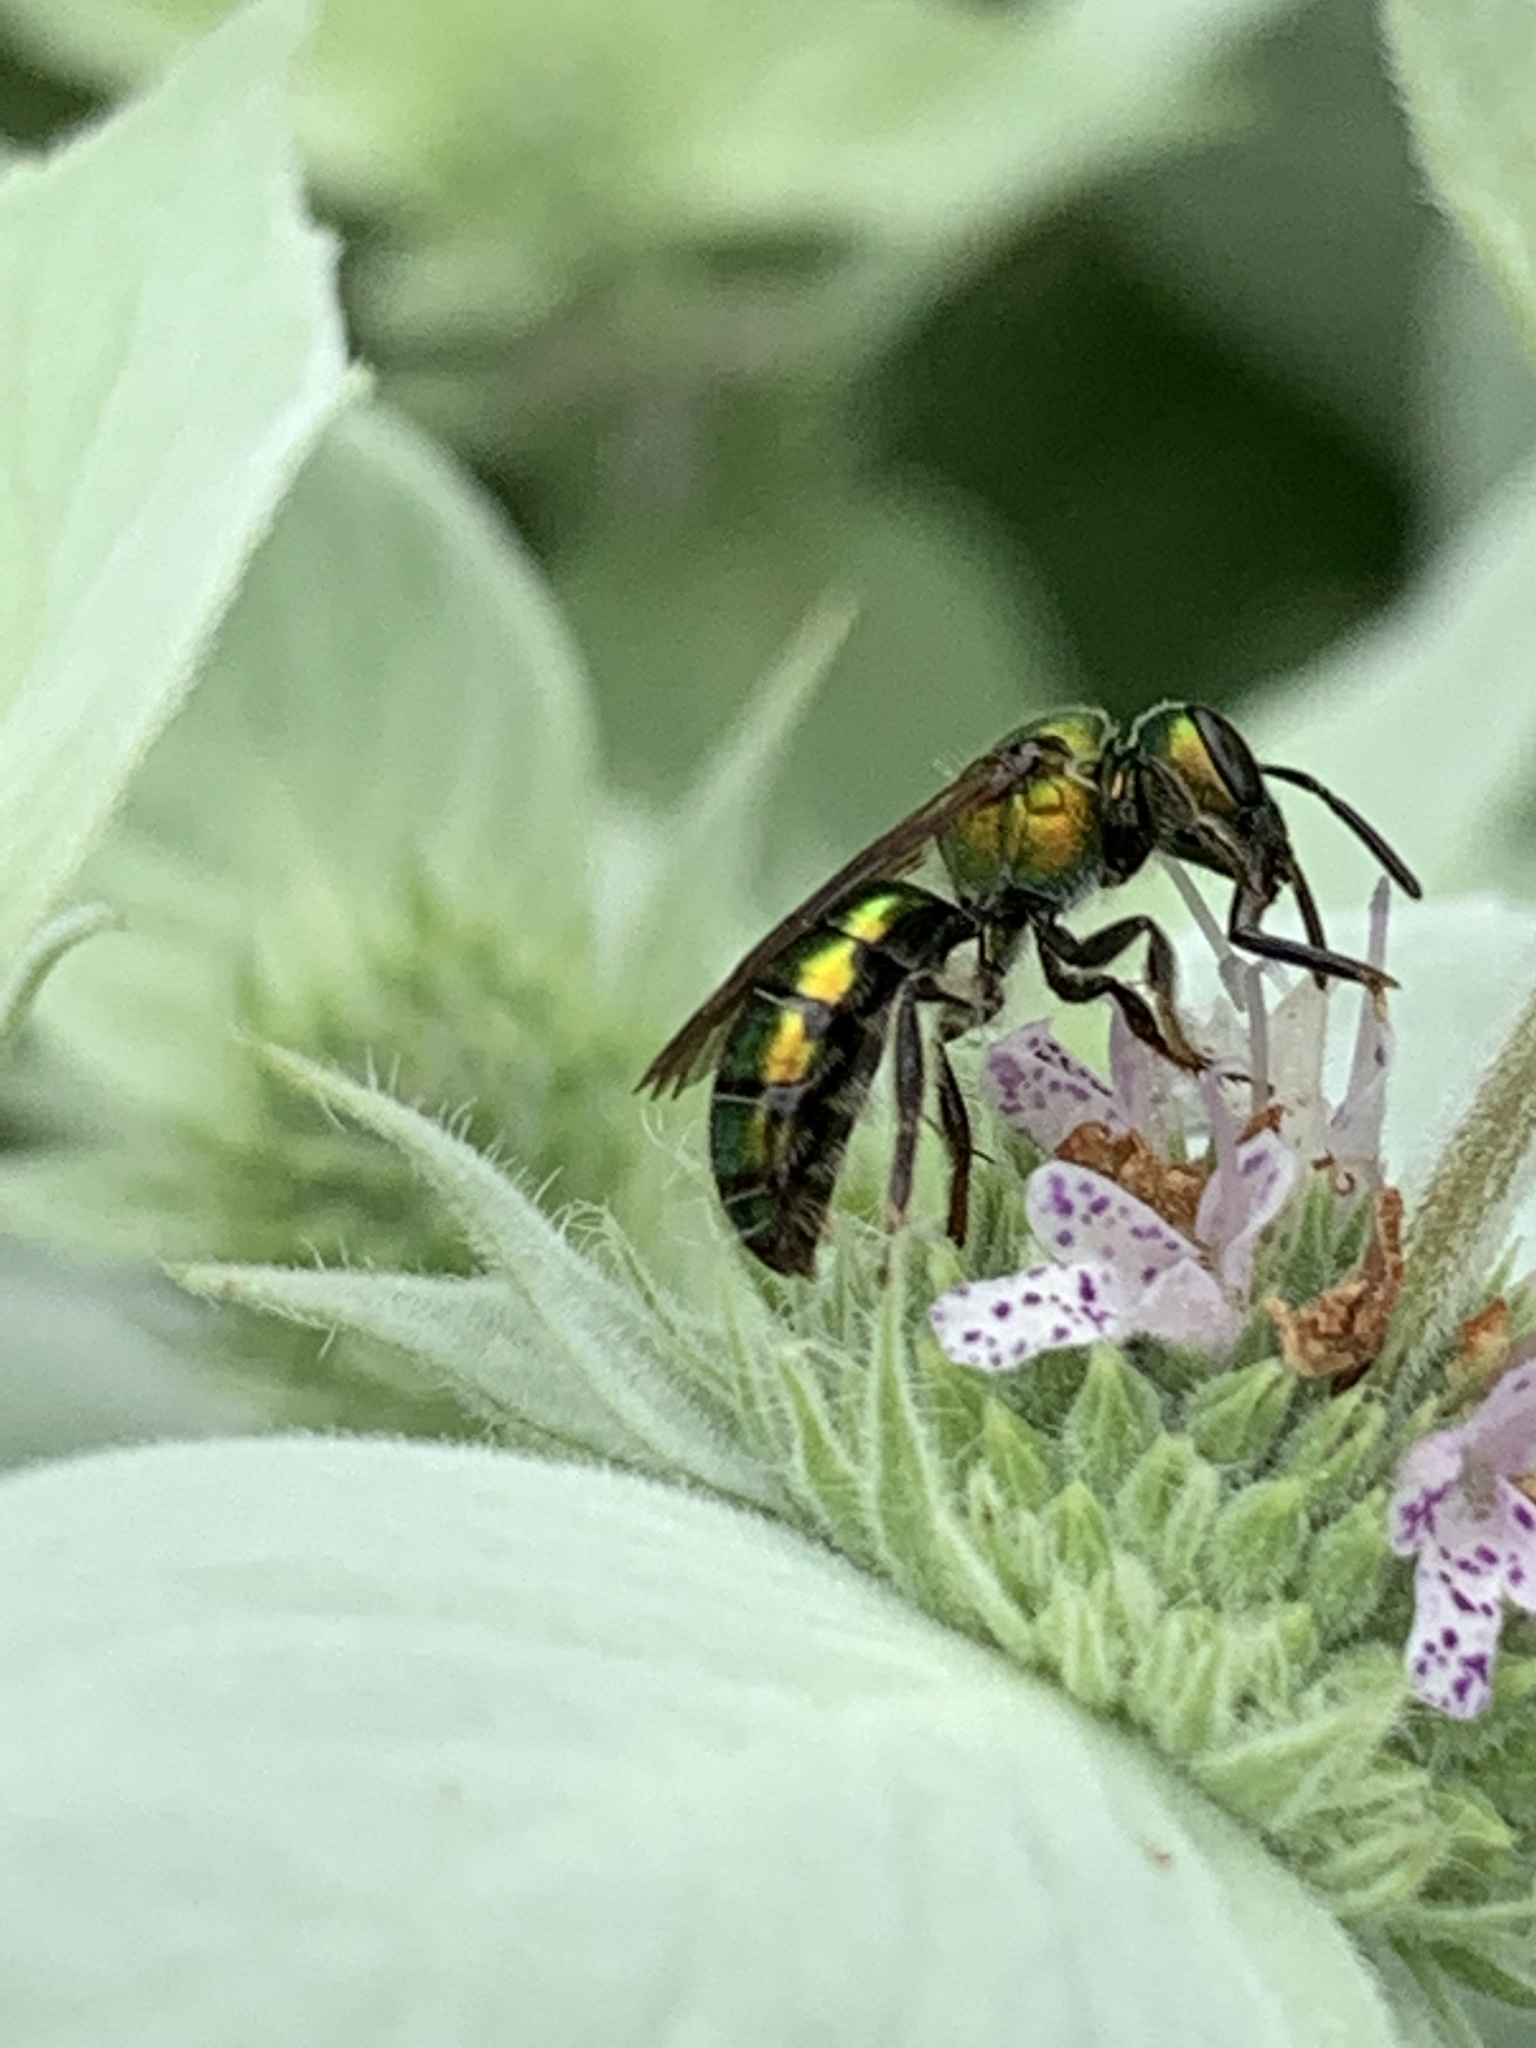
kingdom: Animalia
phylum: Arthropoda
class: Insecta
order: Hymenoptera
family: Halictidae
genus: Augochlora
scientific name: Augochlora pura
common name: Pure green sweat bee
